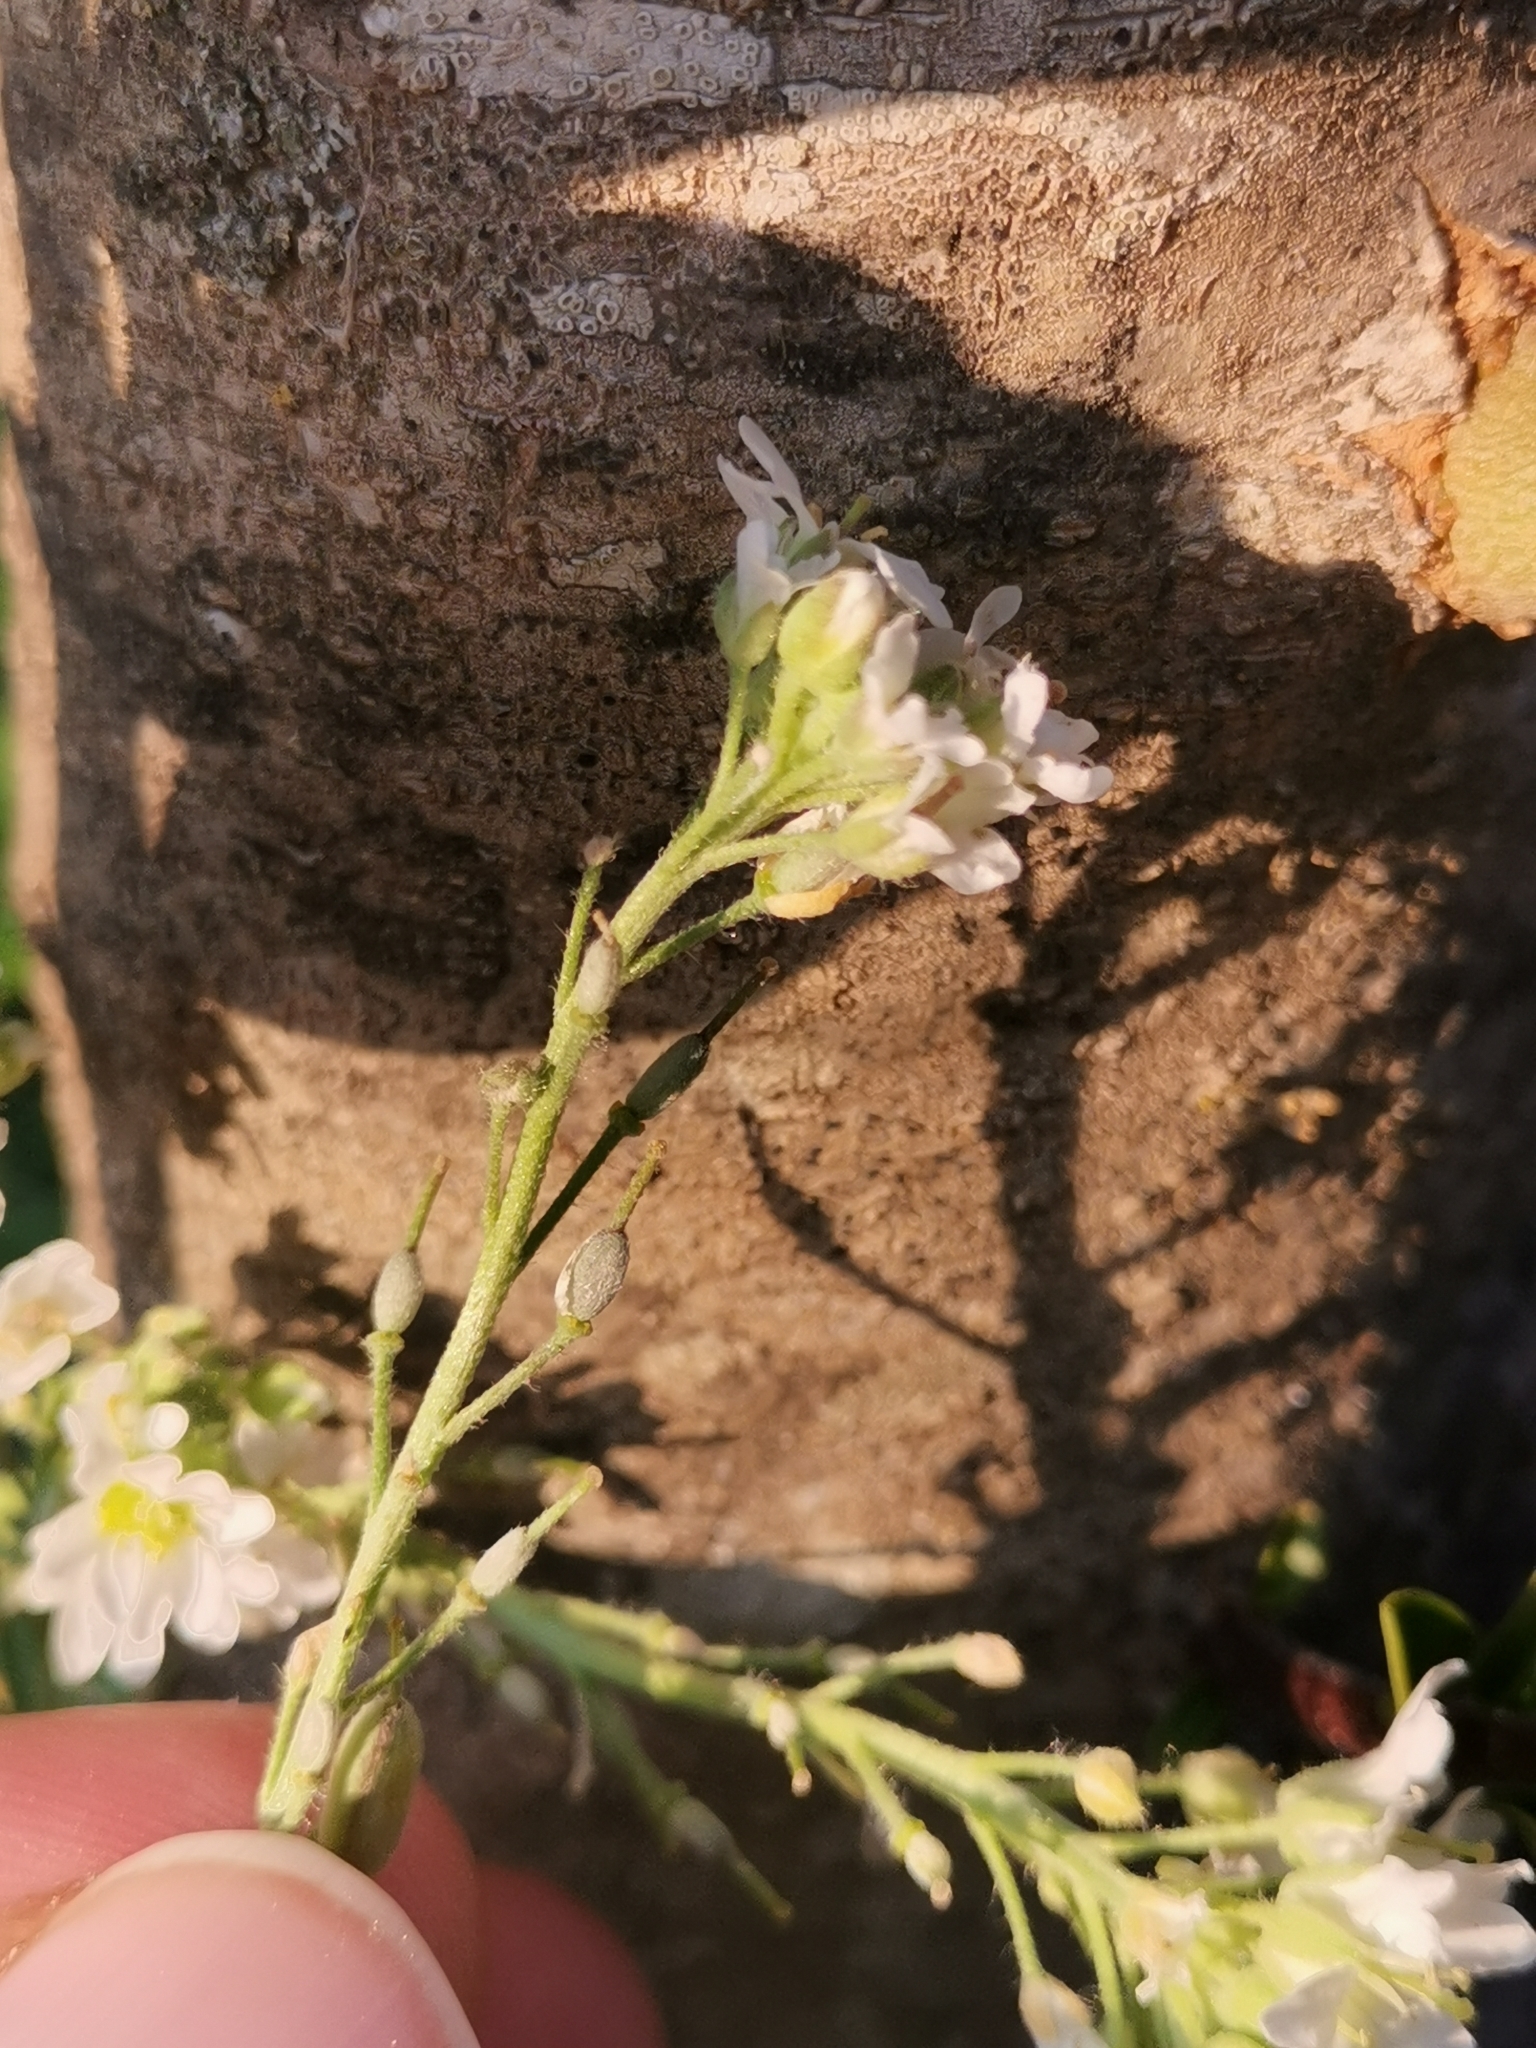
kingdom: Plantae
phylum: Tracheophyta
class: Magnoliopsida
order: Brassicales
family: Brassicaceae
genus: Berteroa
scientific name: Berteroa incana
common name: Hoary alison
